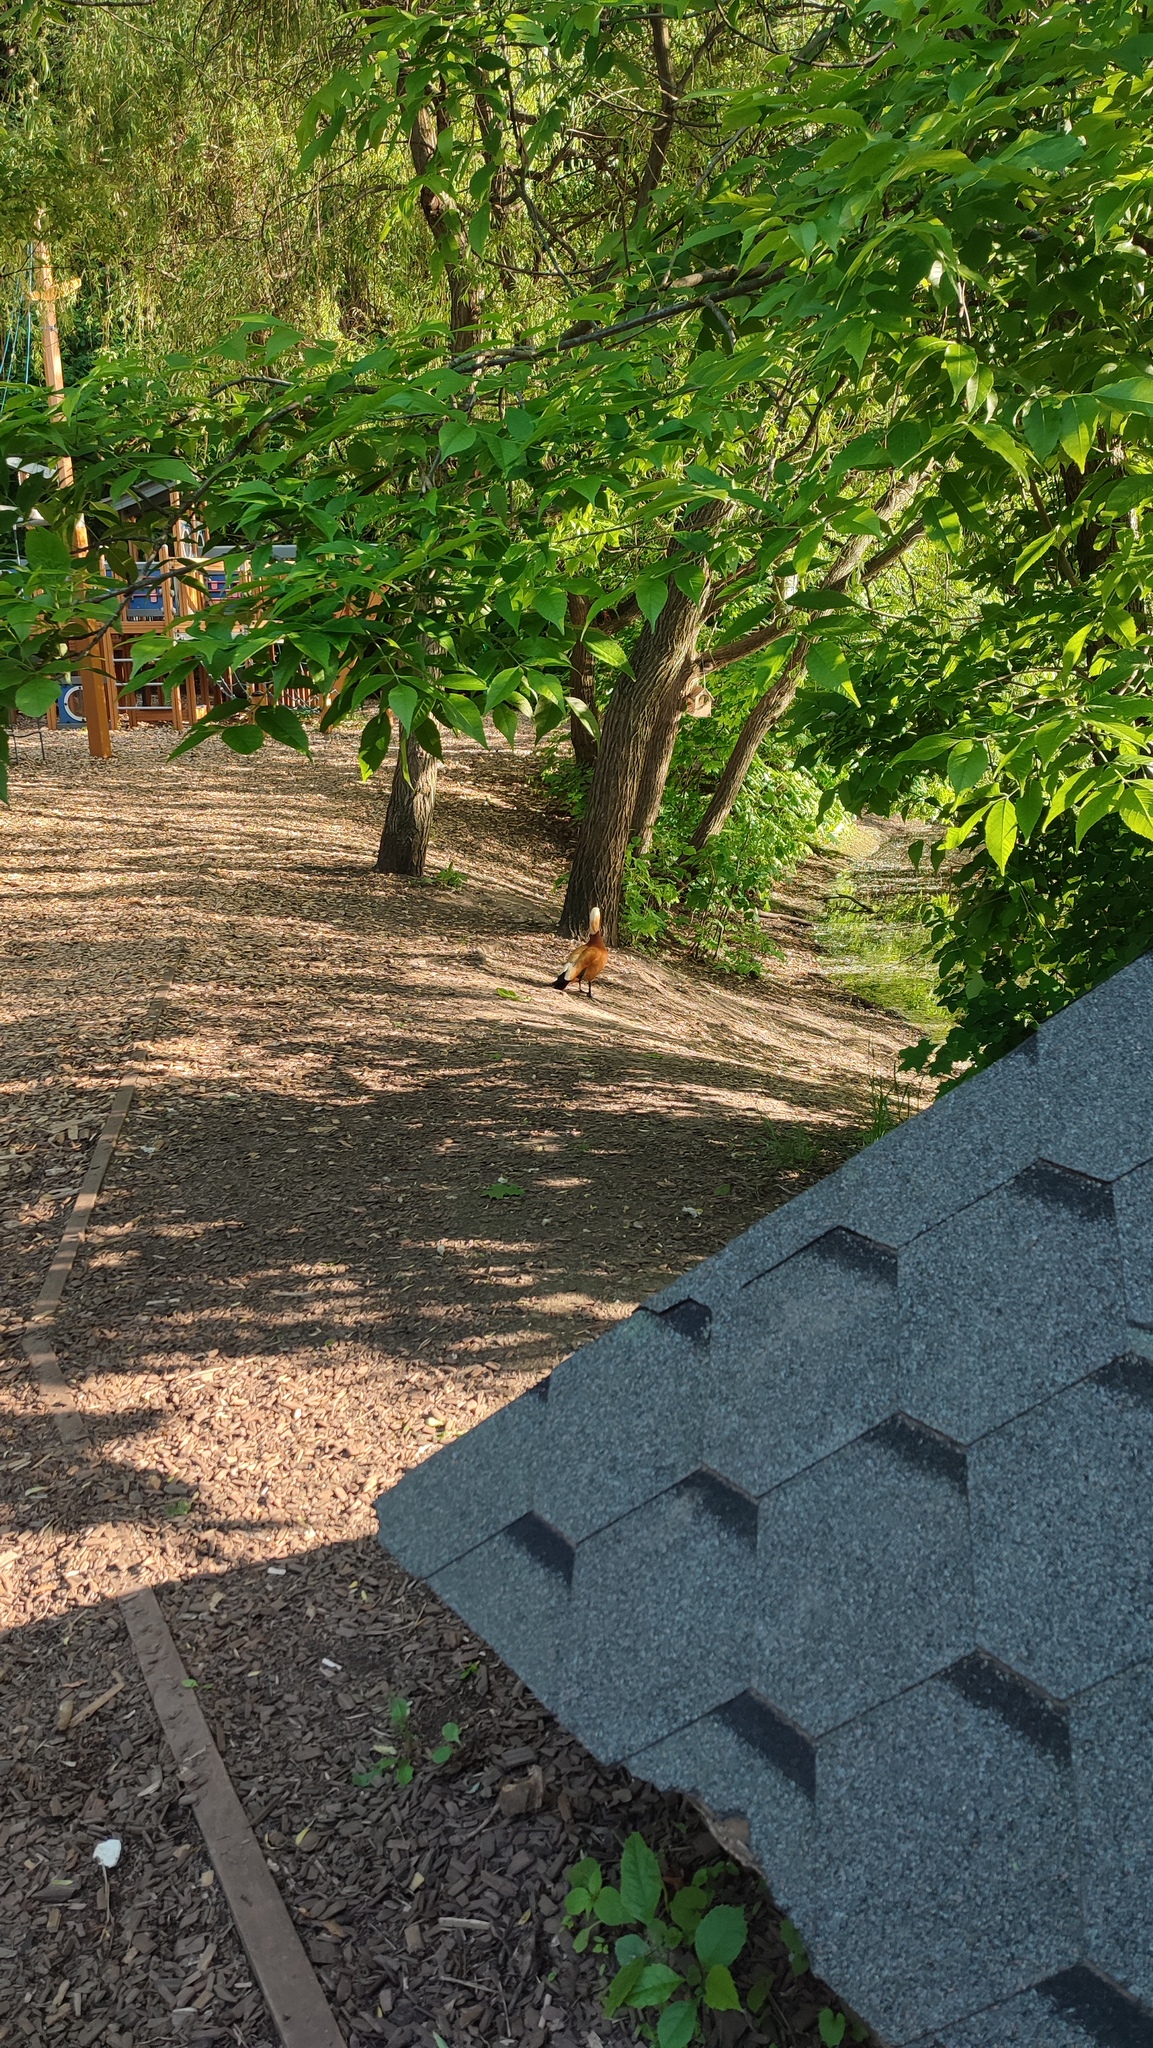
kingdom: Animalia
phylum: Chordata
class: Aves
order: Anseriformes
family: Anatidae
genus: Tadorna
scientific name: Tadorna ferruginea
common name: Ruddy shelduck
